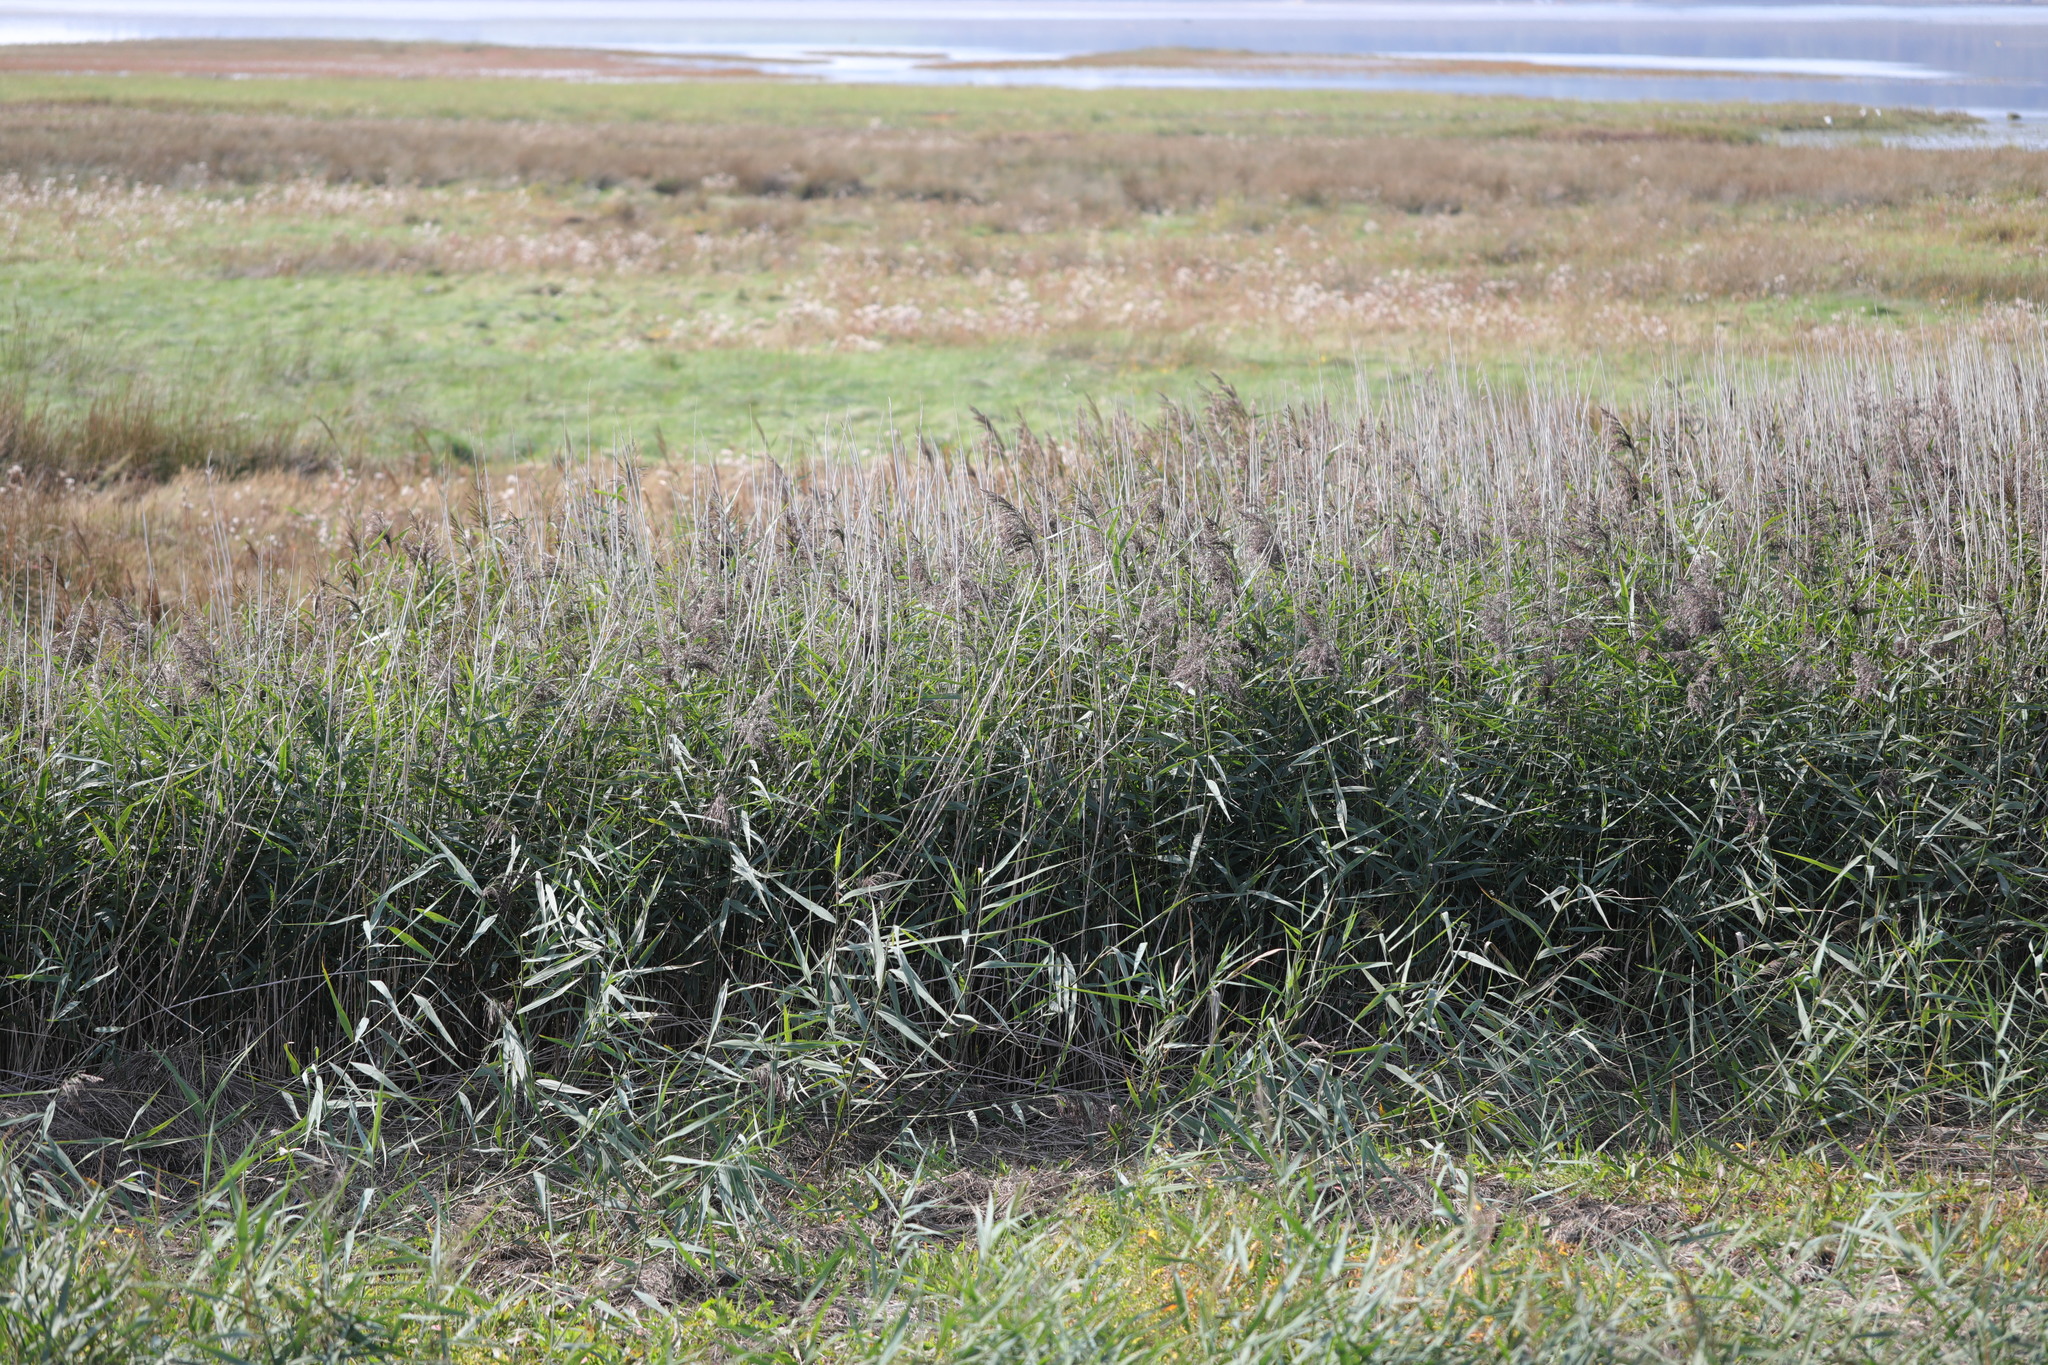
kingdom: Plantae
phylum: Tracheophyta
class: Liliopsida
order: Poales
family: Poaceae
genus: Phragmites
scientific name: Phragmites australis
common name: Common reed
